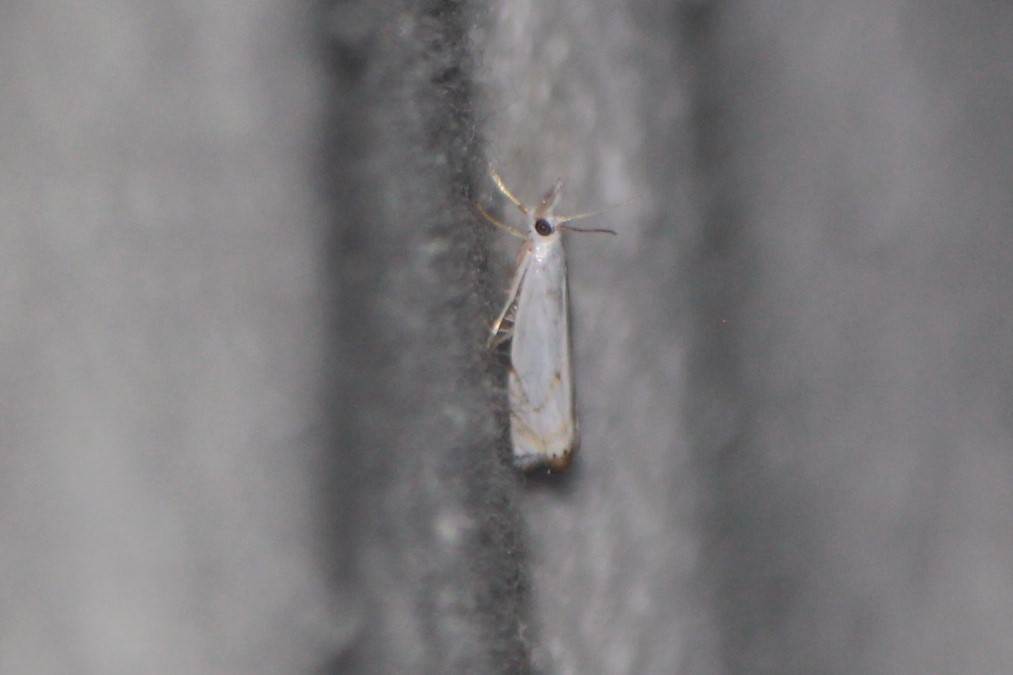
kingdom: Animalia
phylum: Arthropoda
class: Insecta
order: Lepidoptera
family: Crambidae
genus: Microcrambus
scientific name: Microcrambus biguttellus
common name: Gold-stripe grass-veneer moth
